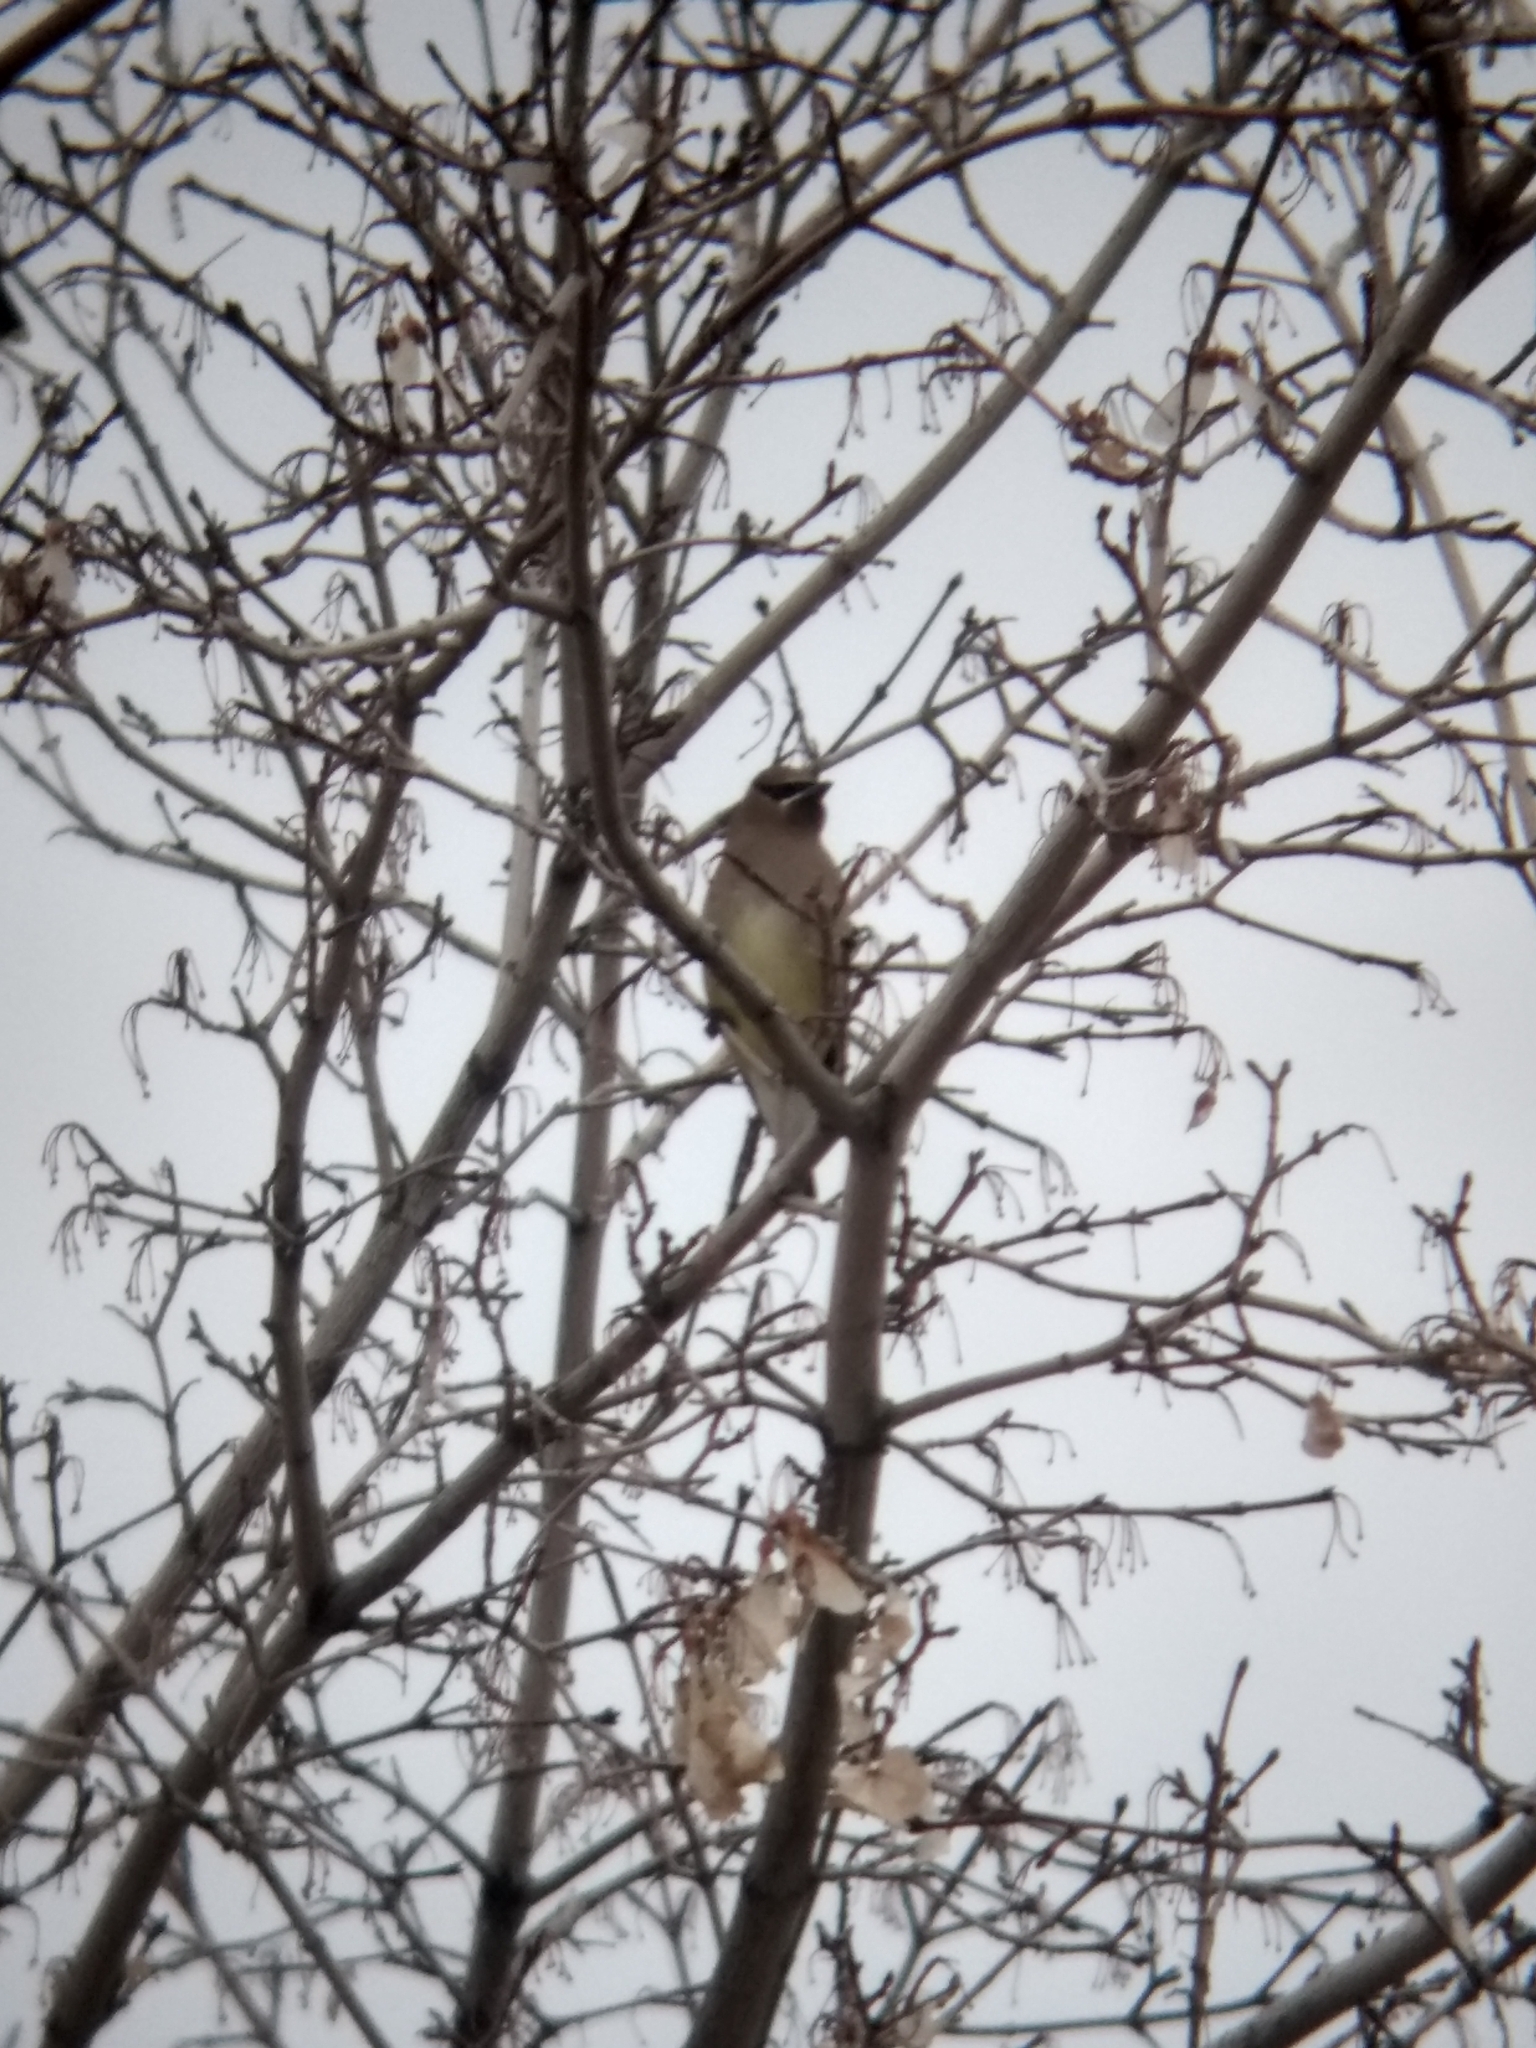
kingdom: Animalia
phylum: Chordata
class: Aves
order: Passeriformes
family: Bombycillidae
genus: Bombycilla
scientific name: Bombycilla cedrorum
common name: Cedar waxwing
